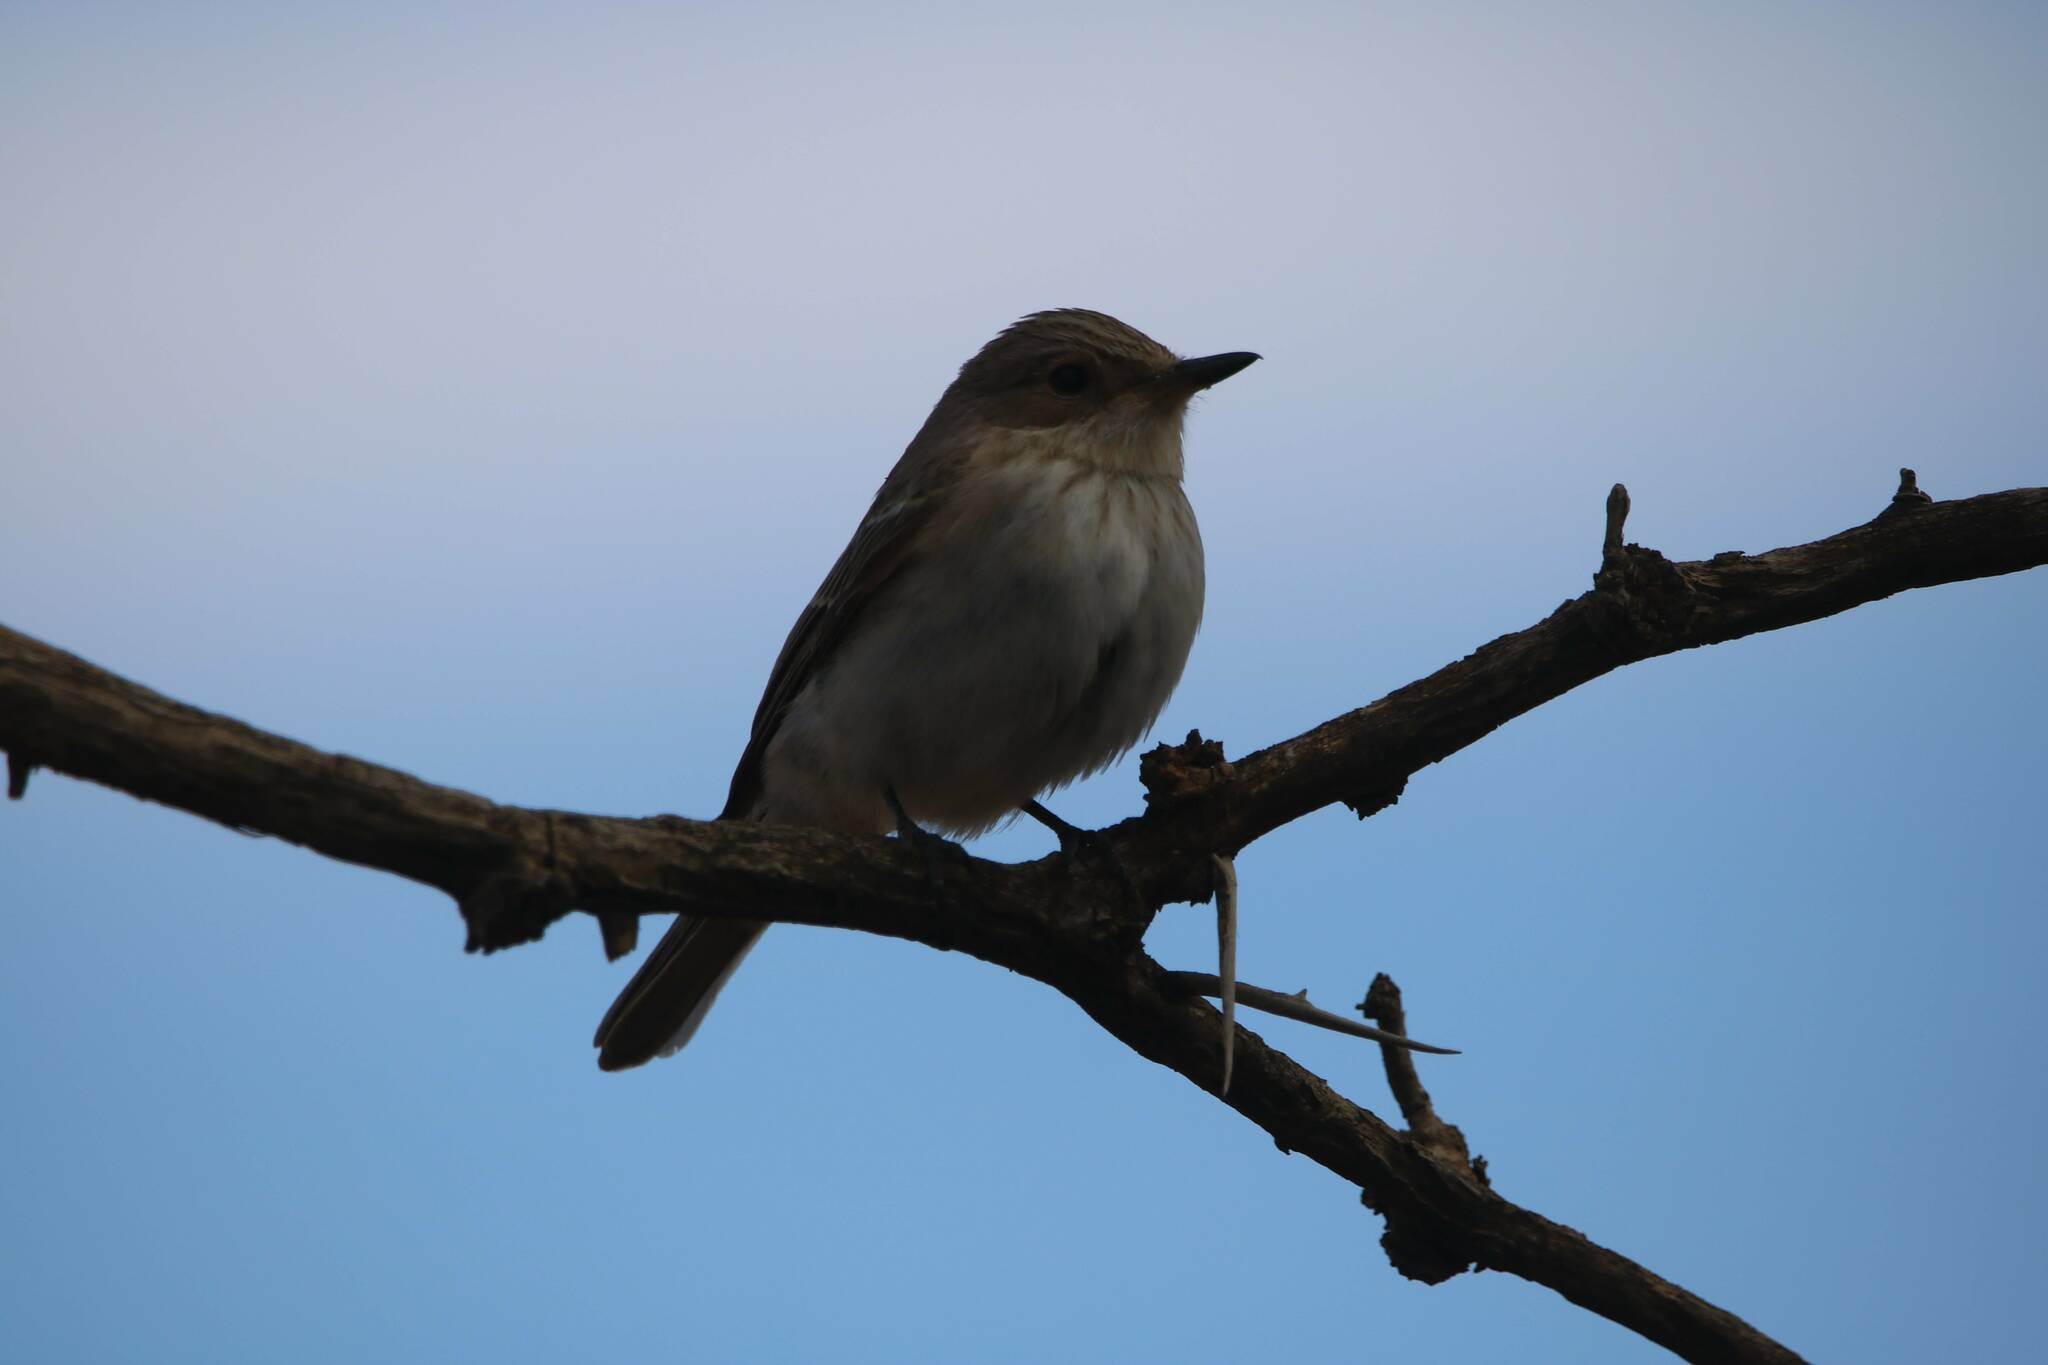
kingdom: Animalia
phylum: Chordata
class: Aves
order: Passeriformes
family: Muscicapidae
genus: Muscicapa
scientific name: Muscicapa striata
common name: Spotted flycatcher
